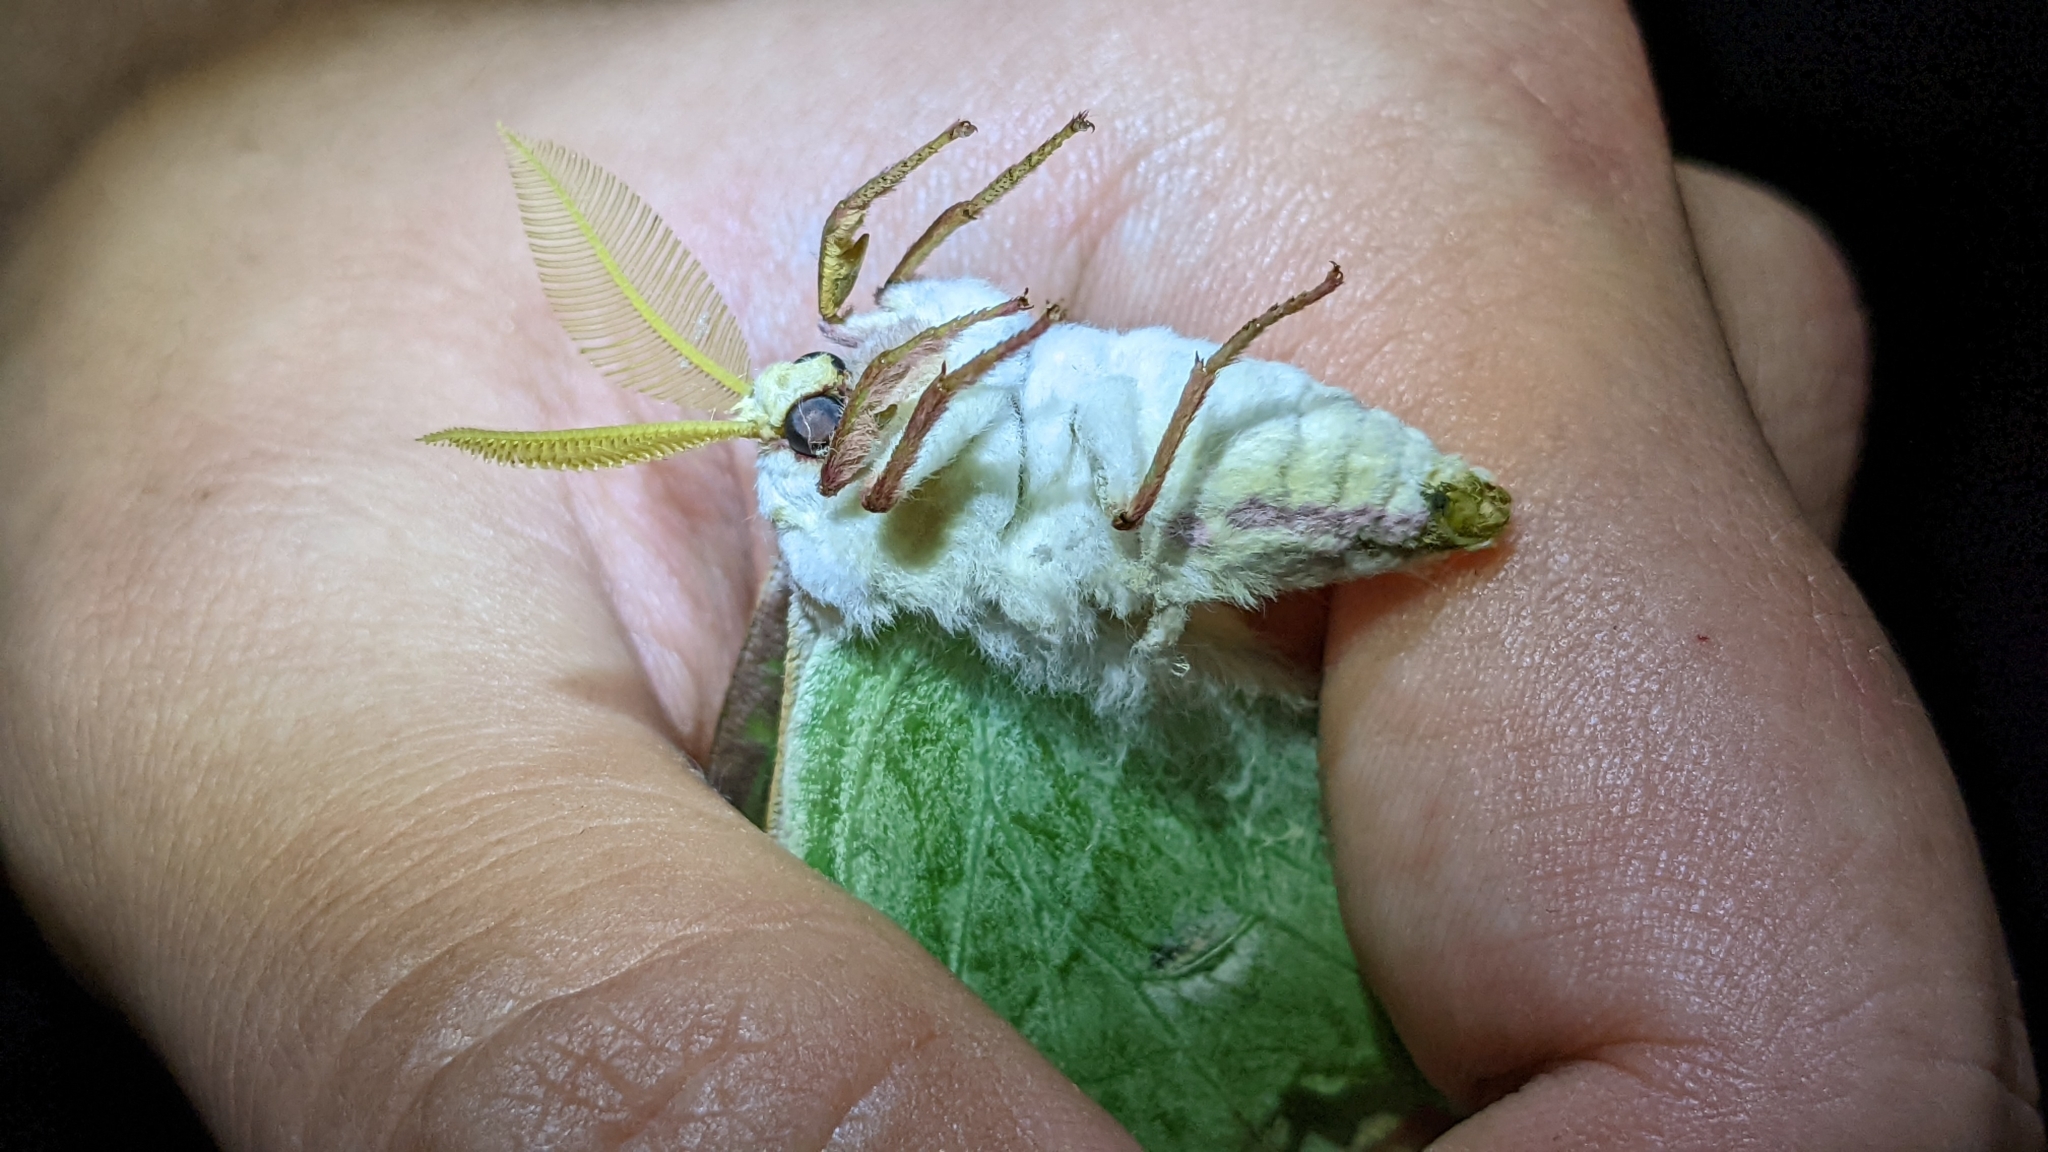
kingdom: Animalia
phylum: Arthropoda
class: Insecta
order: Lepidoptera
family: Saturniidae
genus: Actias
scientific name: Actias luna
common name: Luna moth
